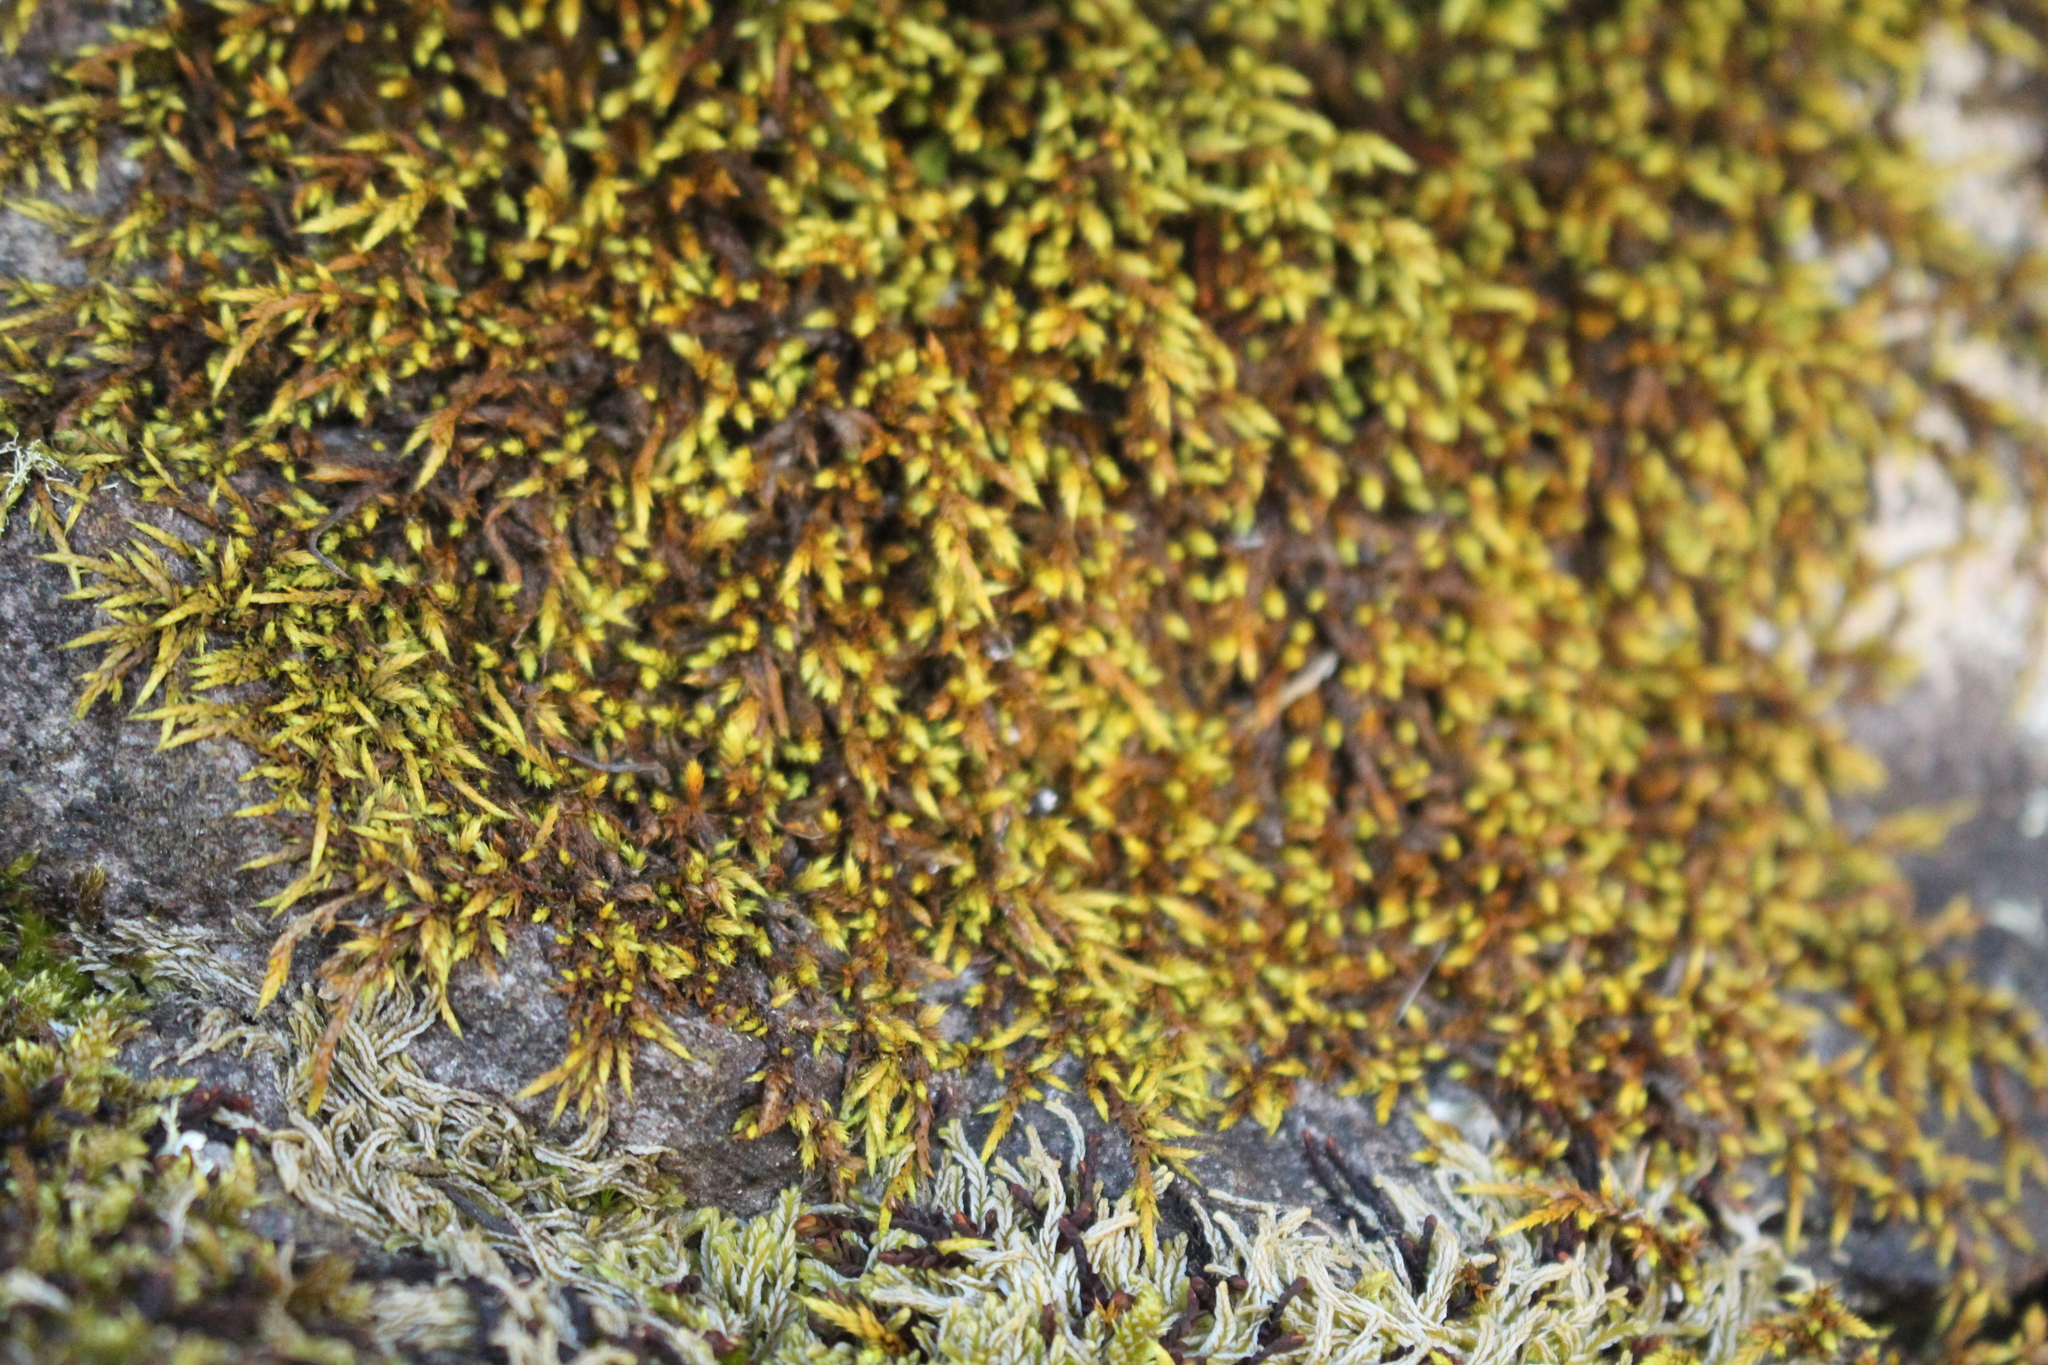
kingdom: Plantae
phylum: Bryophyta
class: Bryopsida
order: Hedwigiales
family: Hedwigiaceae
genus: Rhacocarpus
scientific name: Rhacocarpus purpurascens
